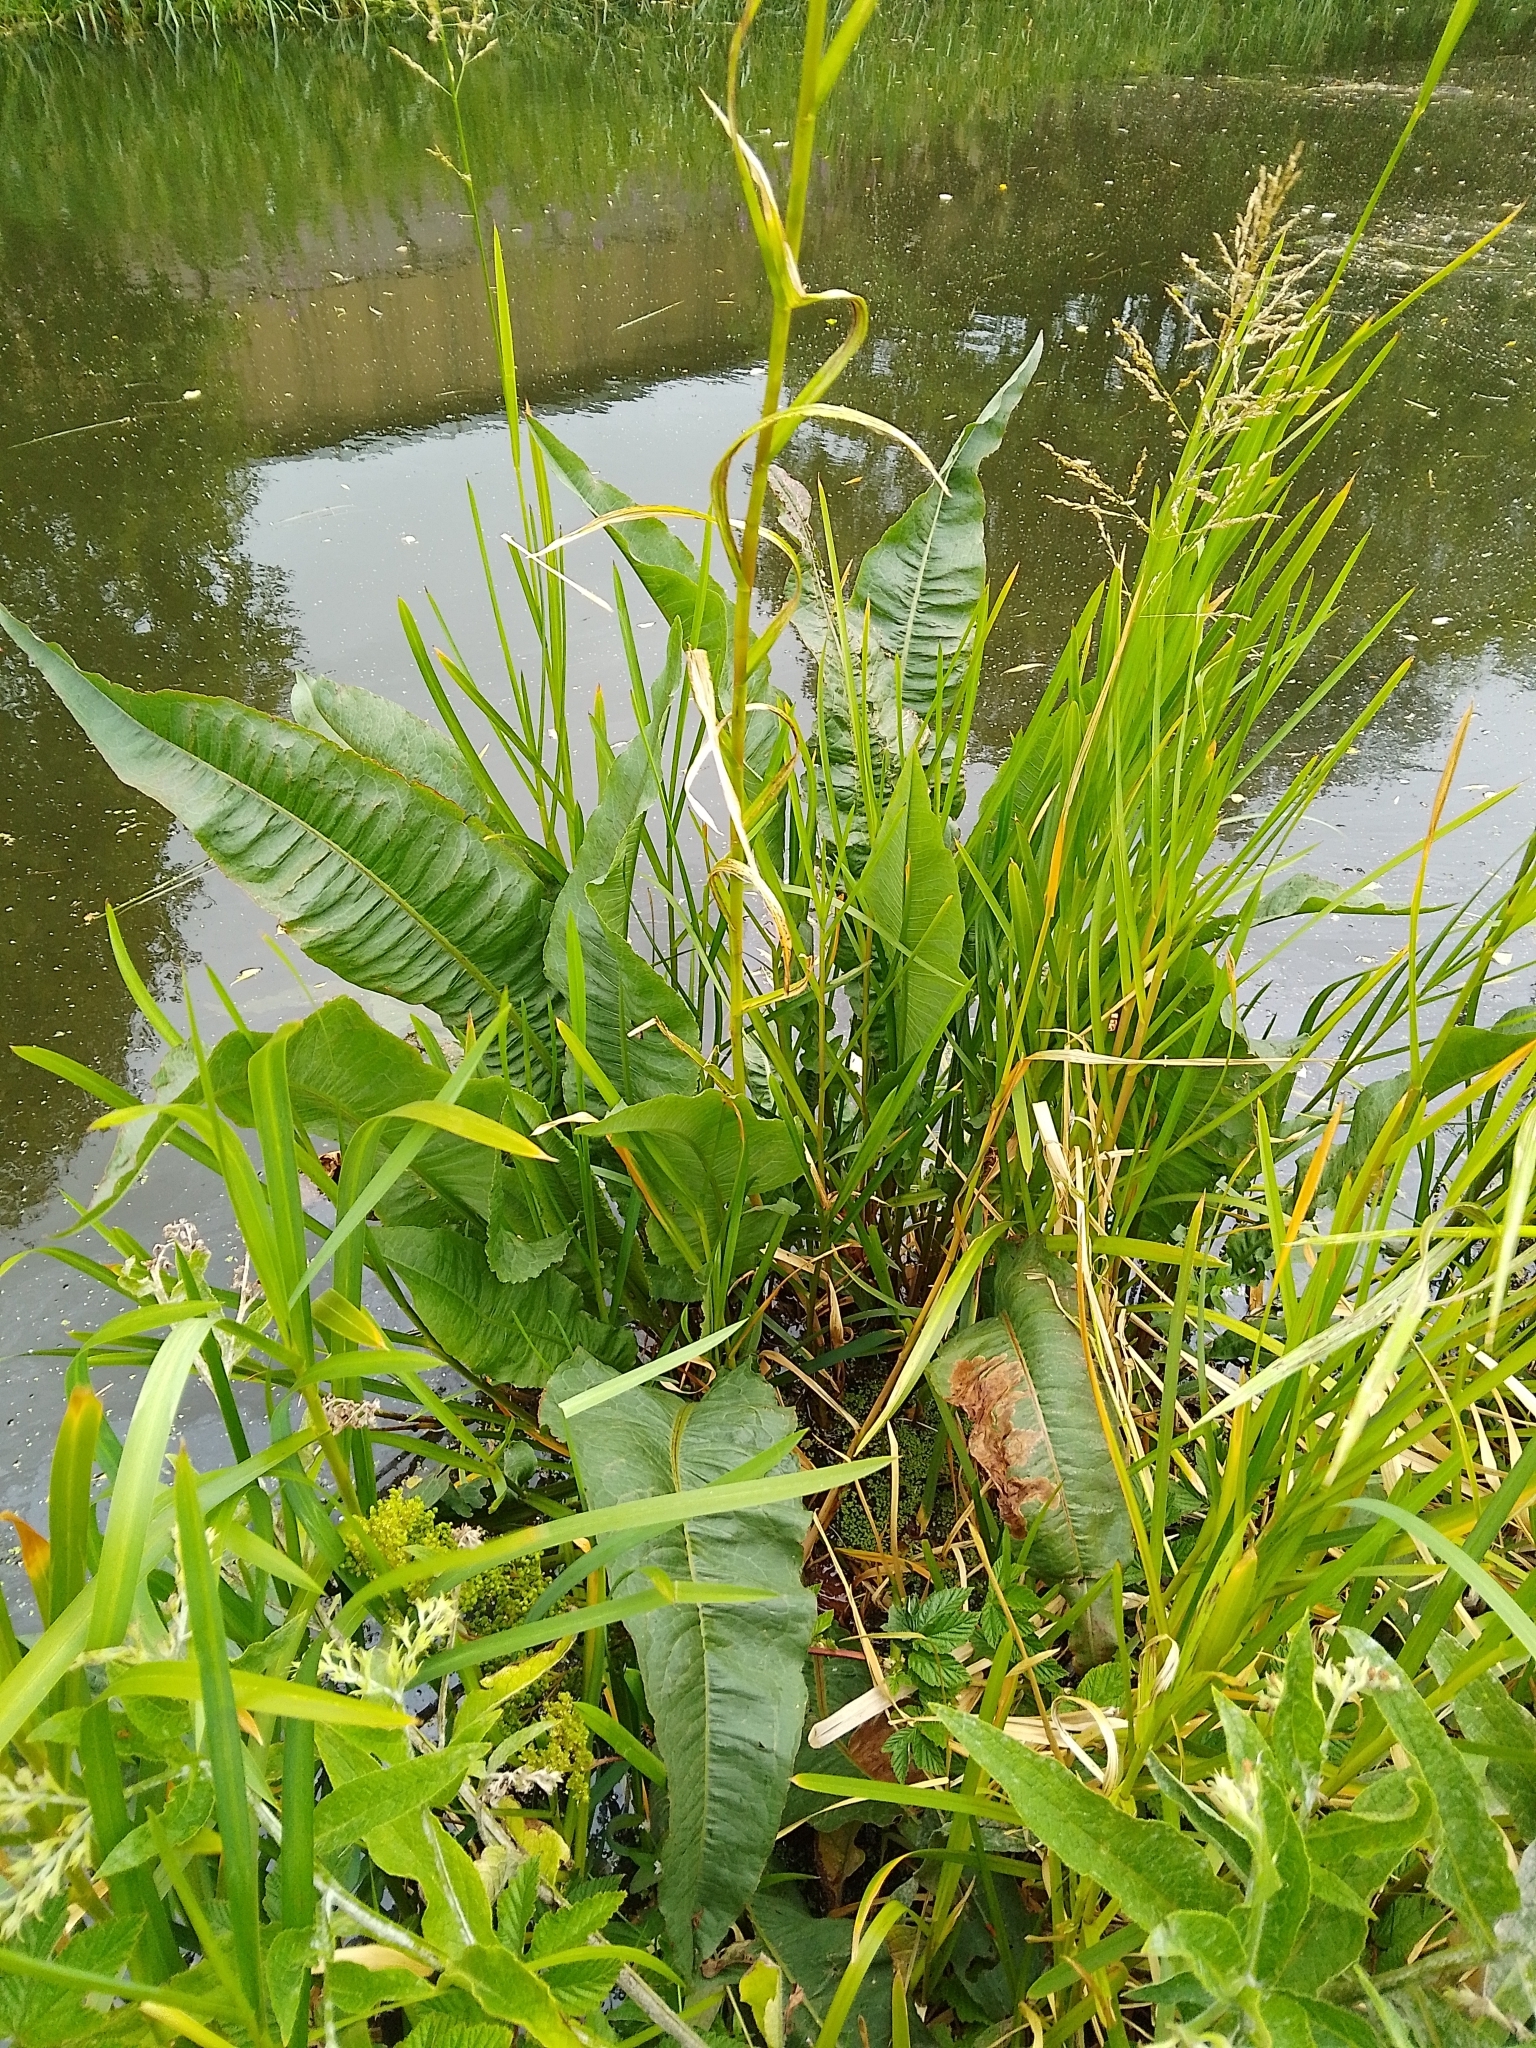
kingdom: Plantae
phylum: Tracheophyta
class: Magnoliopsida
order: Caryophyllales
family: Polygonaceae
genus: Rumex
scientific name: Rumex hydrolapathum
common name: Water dock
